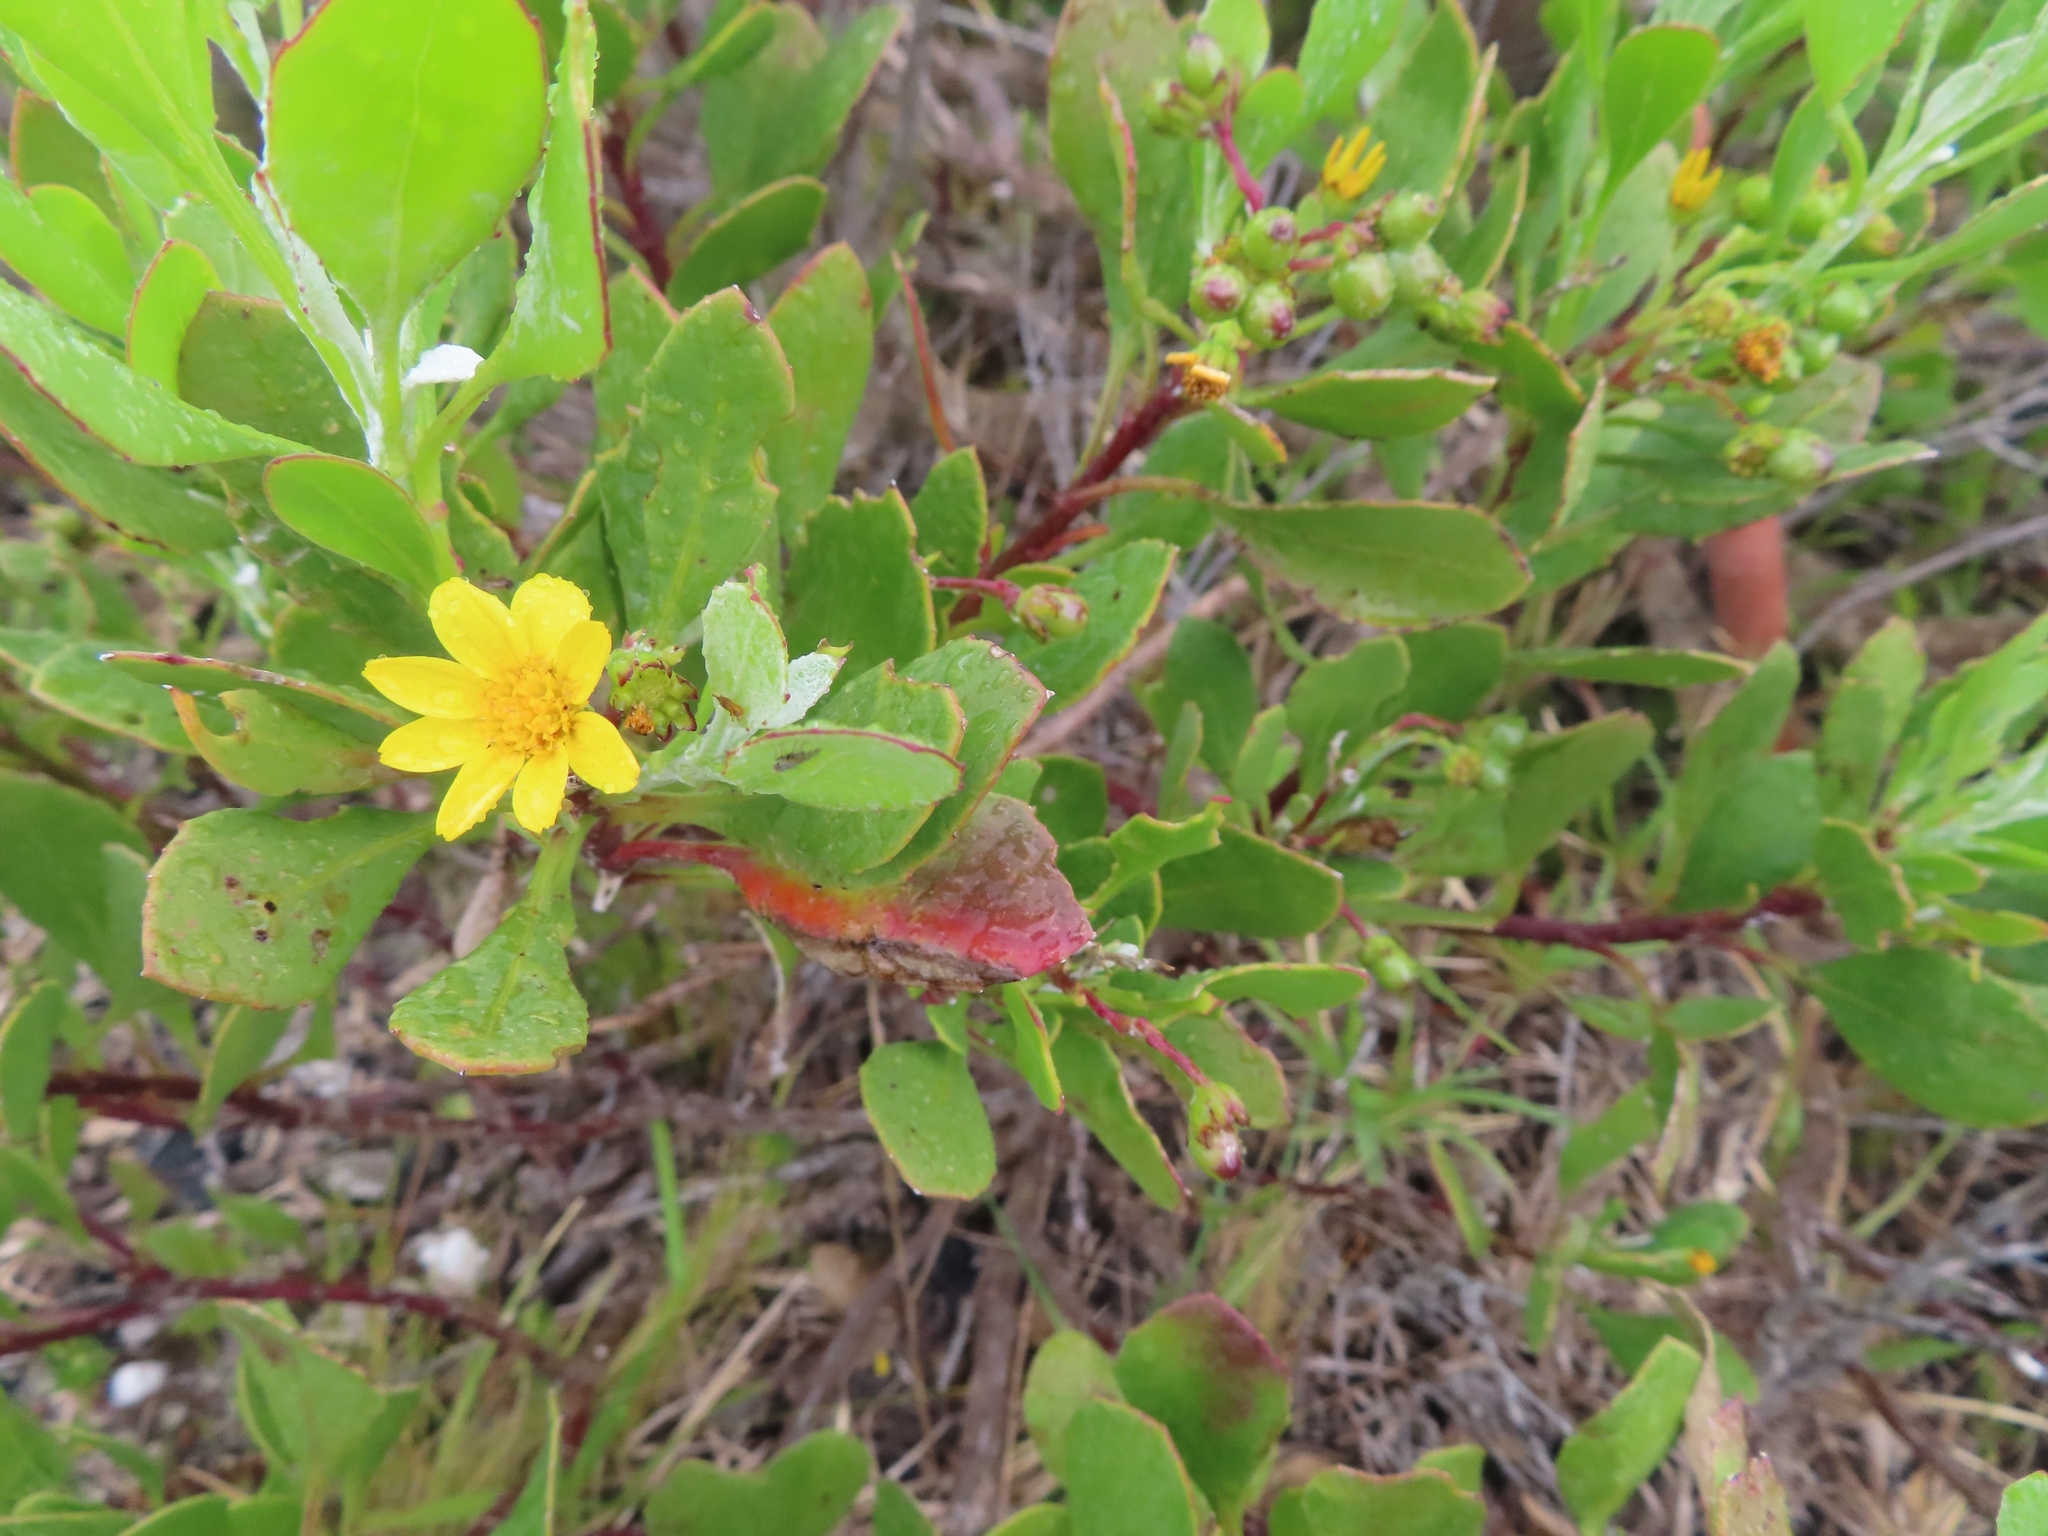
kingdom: Plantae
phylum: Tracheophyta
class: Magnoliopsida
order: Asterales
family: Asteraceae
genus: Osteospermum
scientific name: Osteospermum moniliferum
